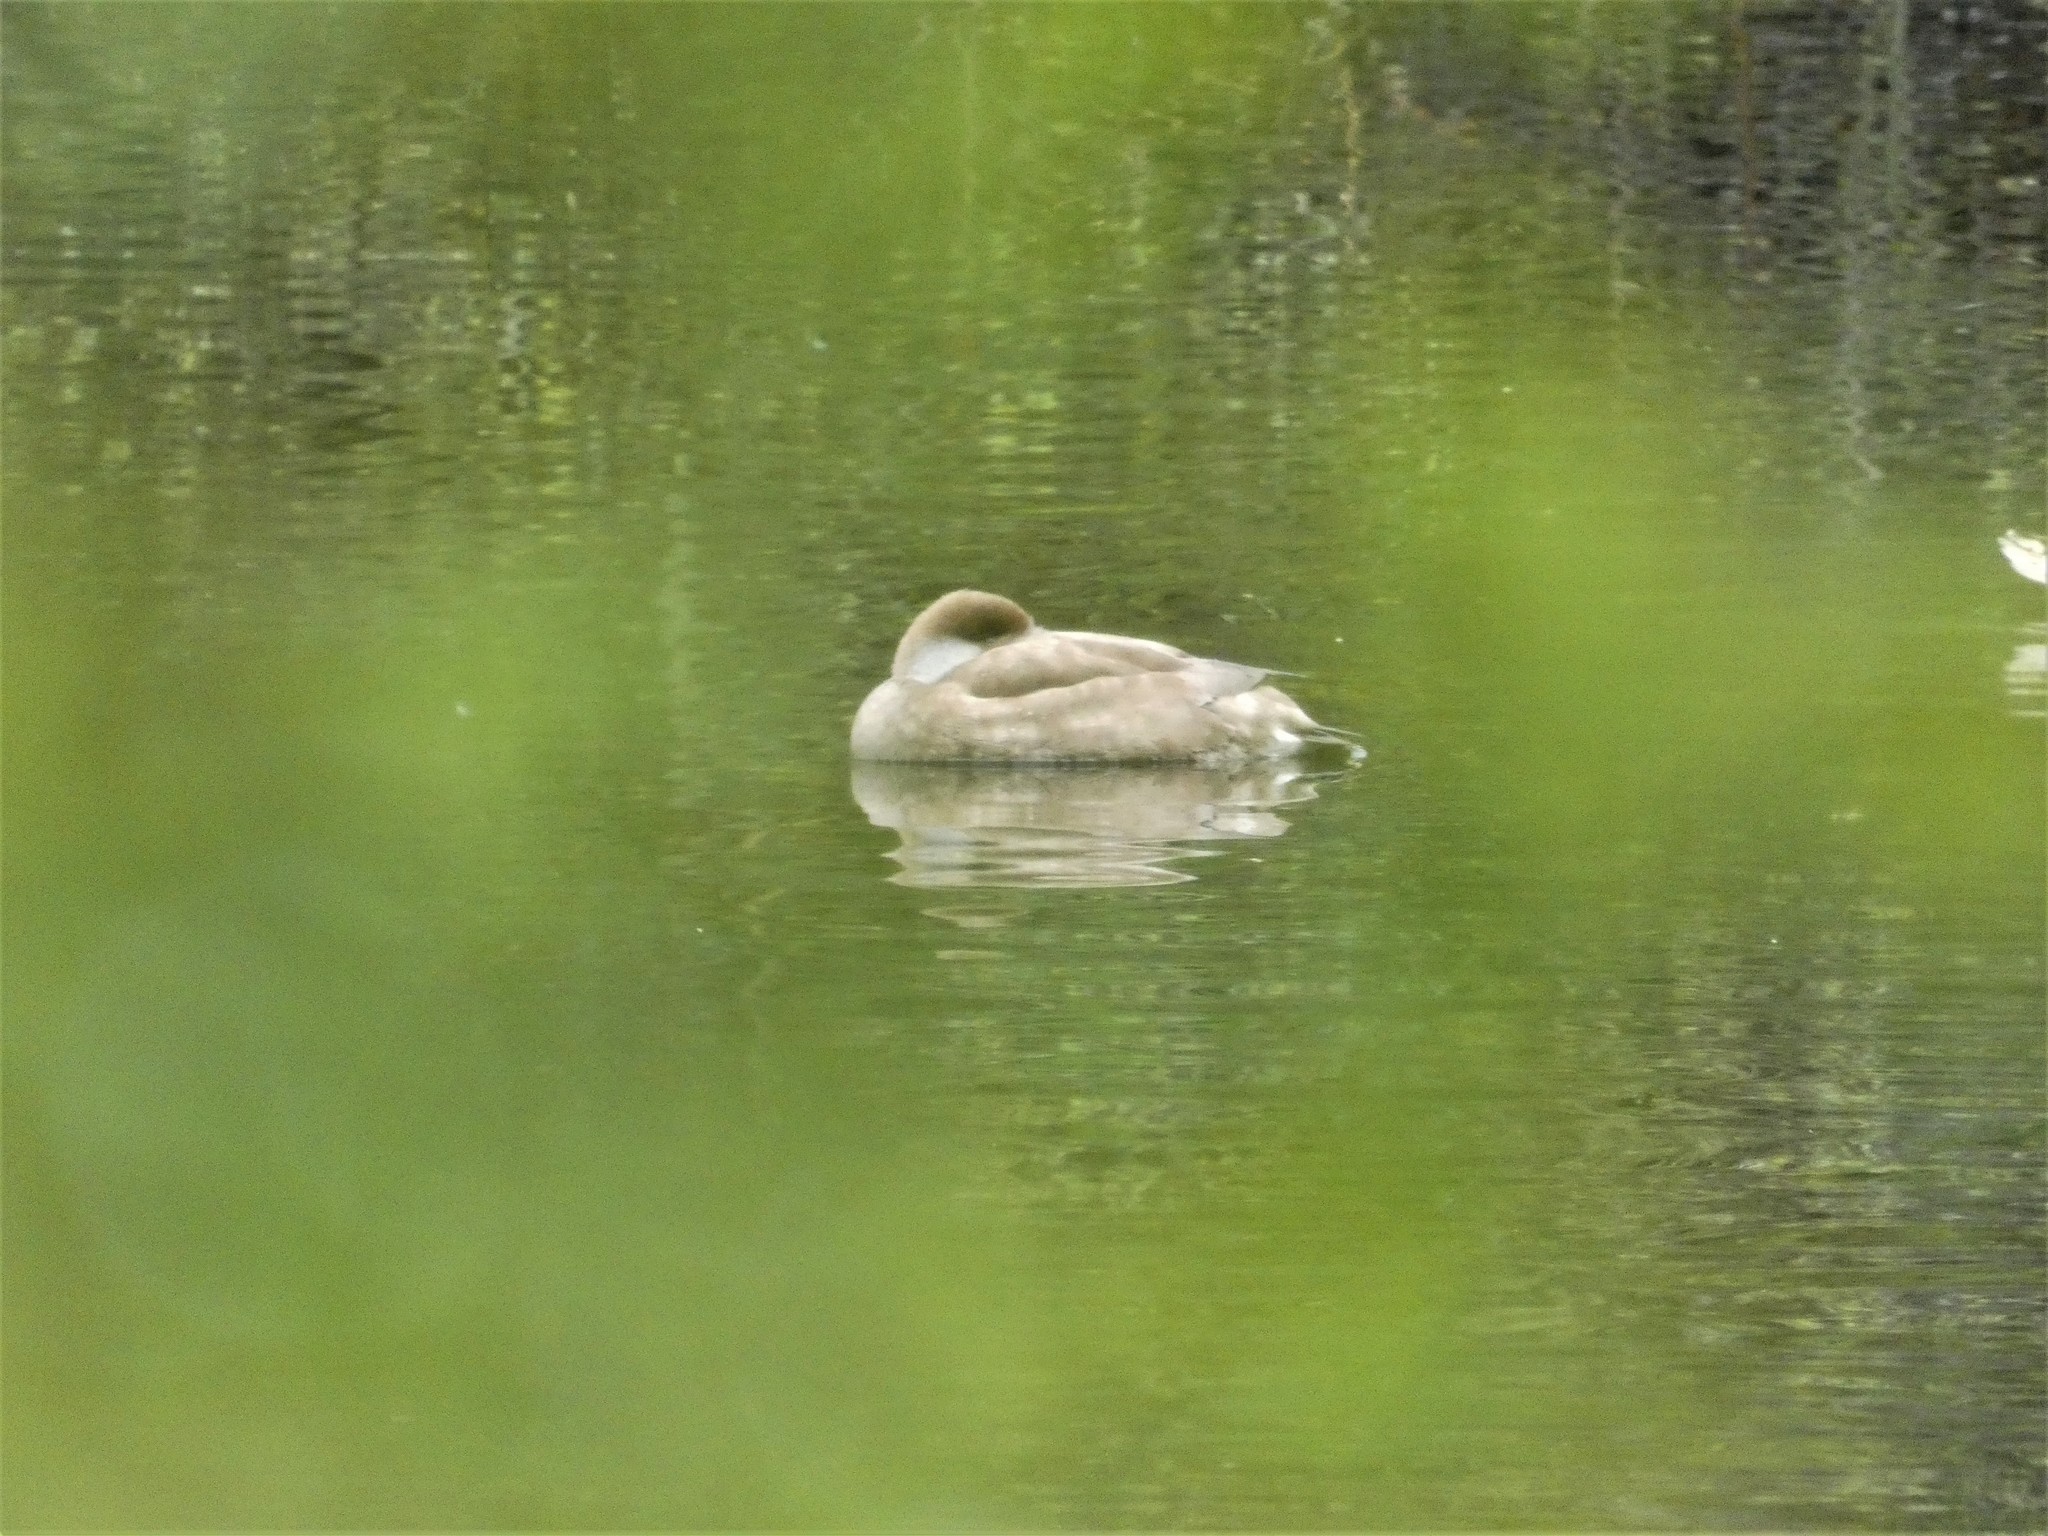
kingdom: Animalia
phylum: Chordata
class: Aves
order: Anseriformes
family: Anatidae
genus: Netta
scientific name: Netta rufina
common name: Red-crested pochard
